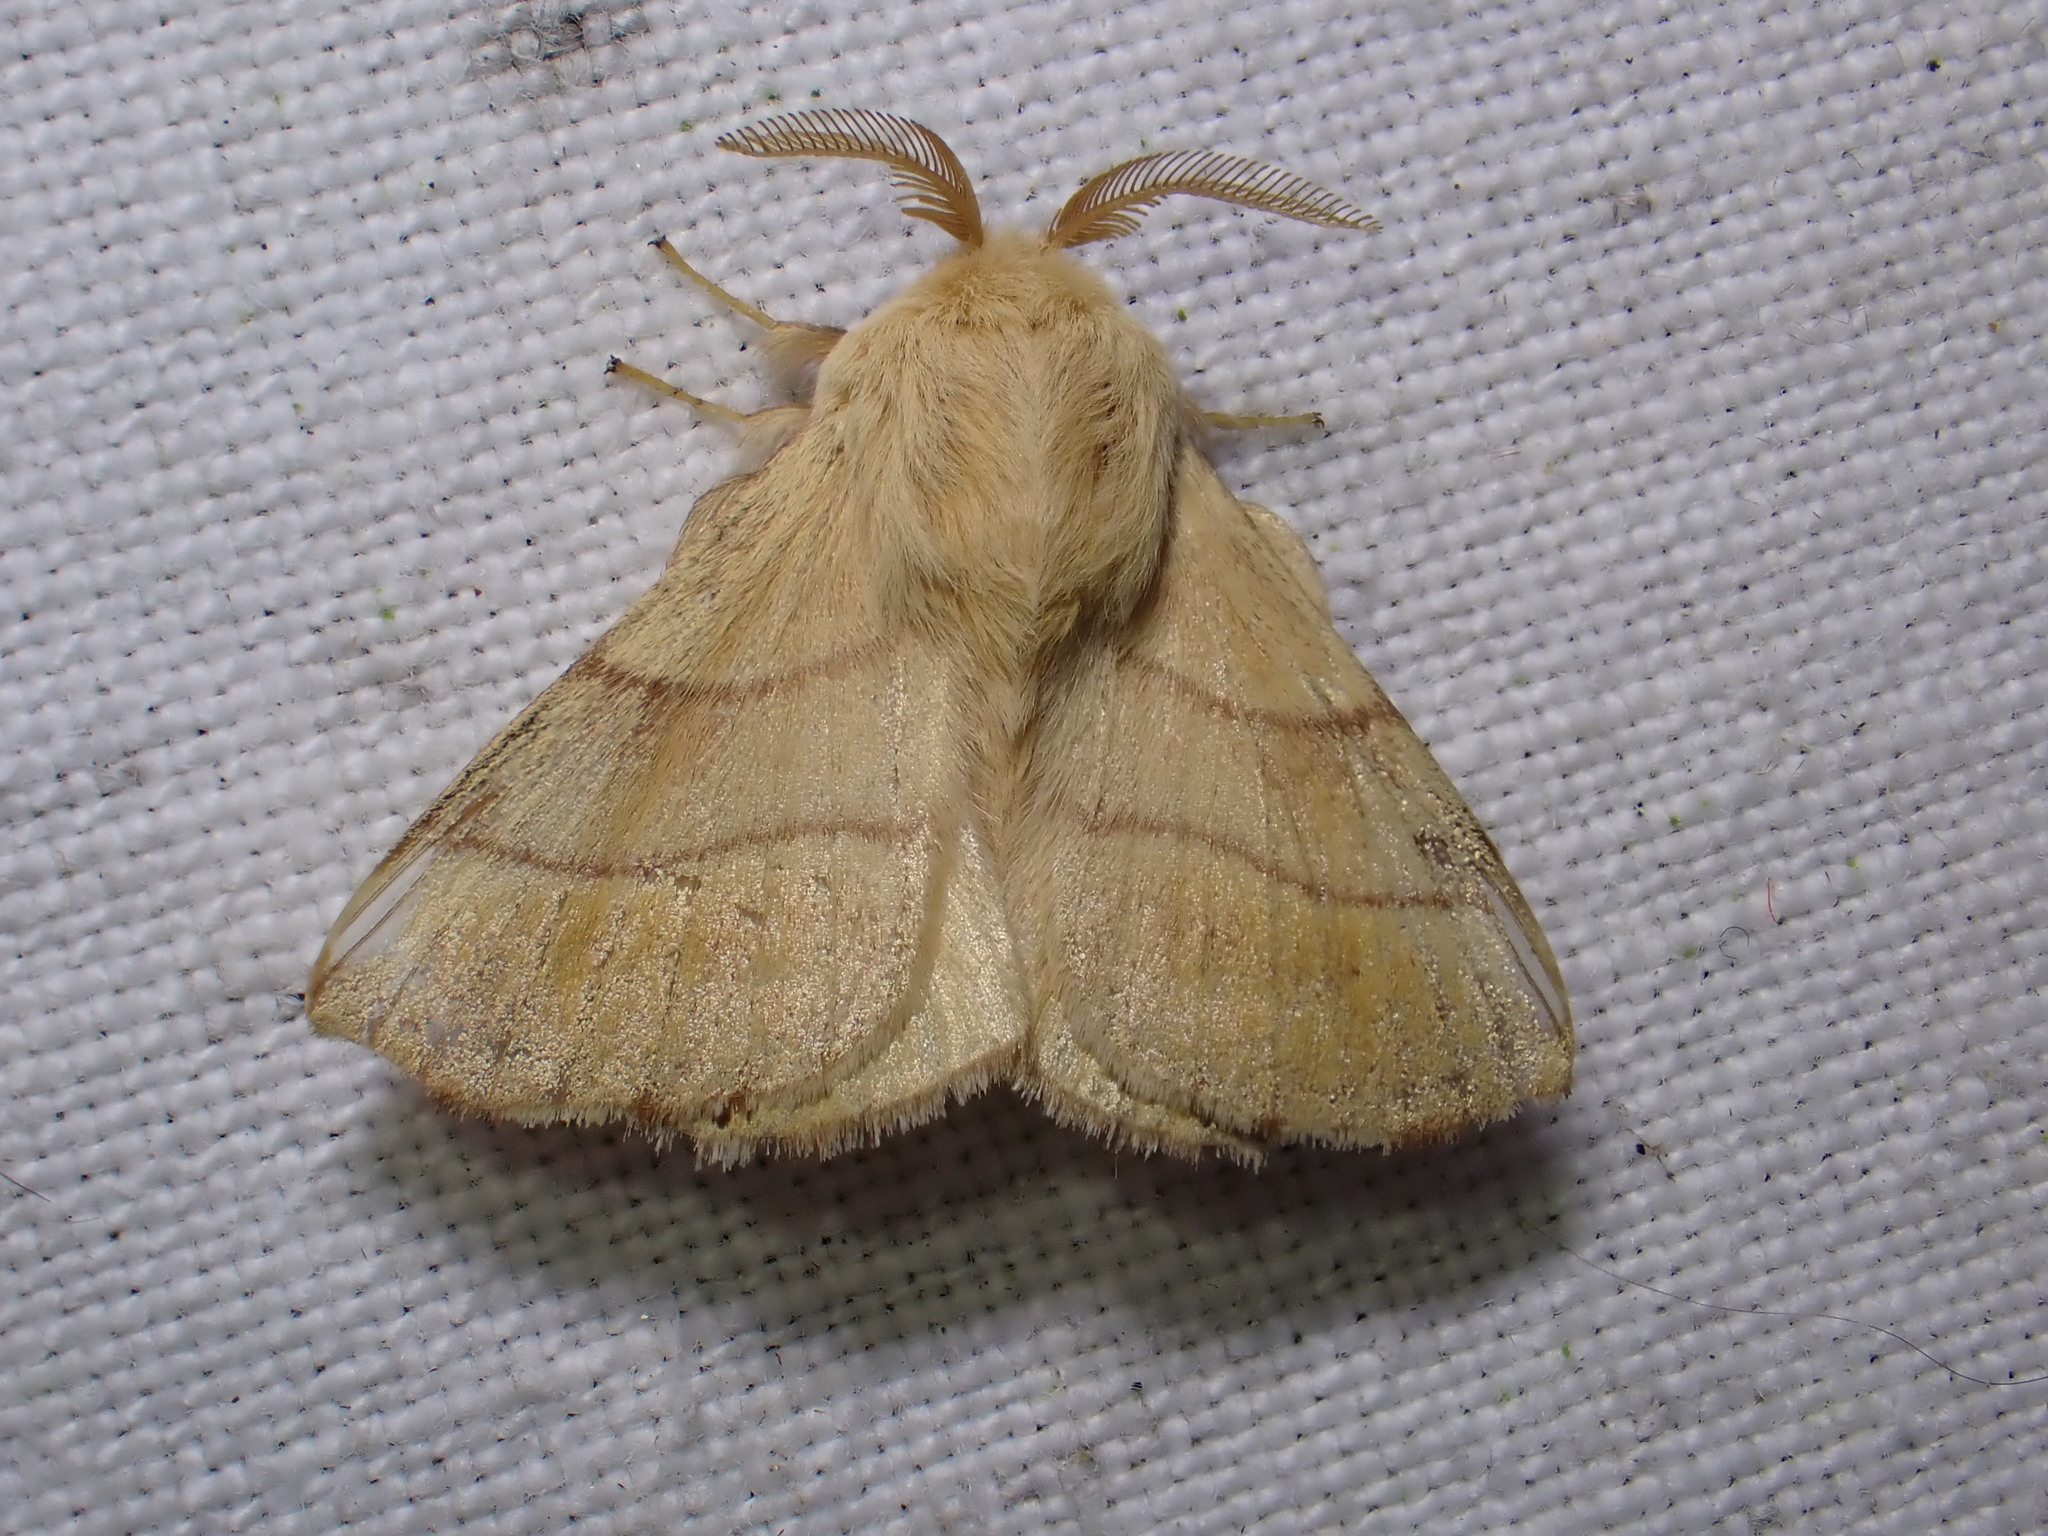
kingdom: Animalia
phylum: Arthropoda
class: Insecta
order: Lepidoptera
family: Lasiocampidae
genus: Malacosoma
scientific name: Malacosoma neustria
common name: The lackey
